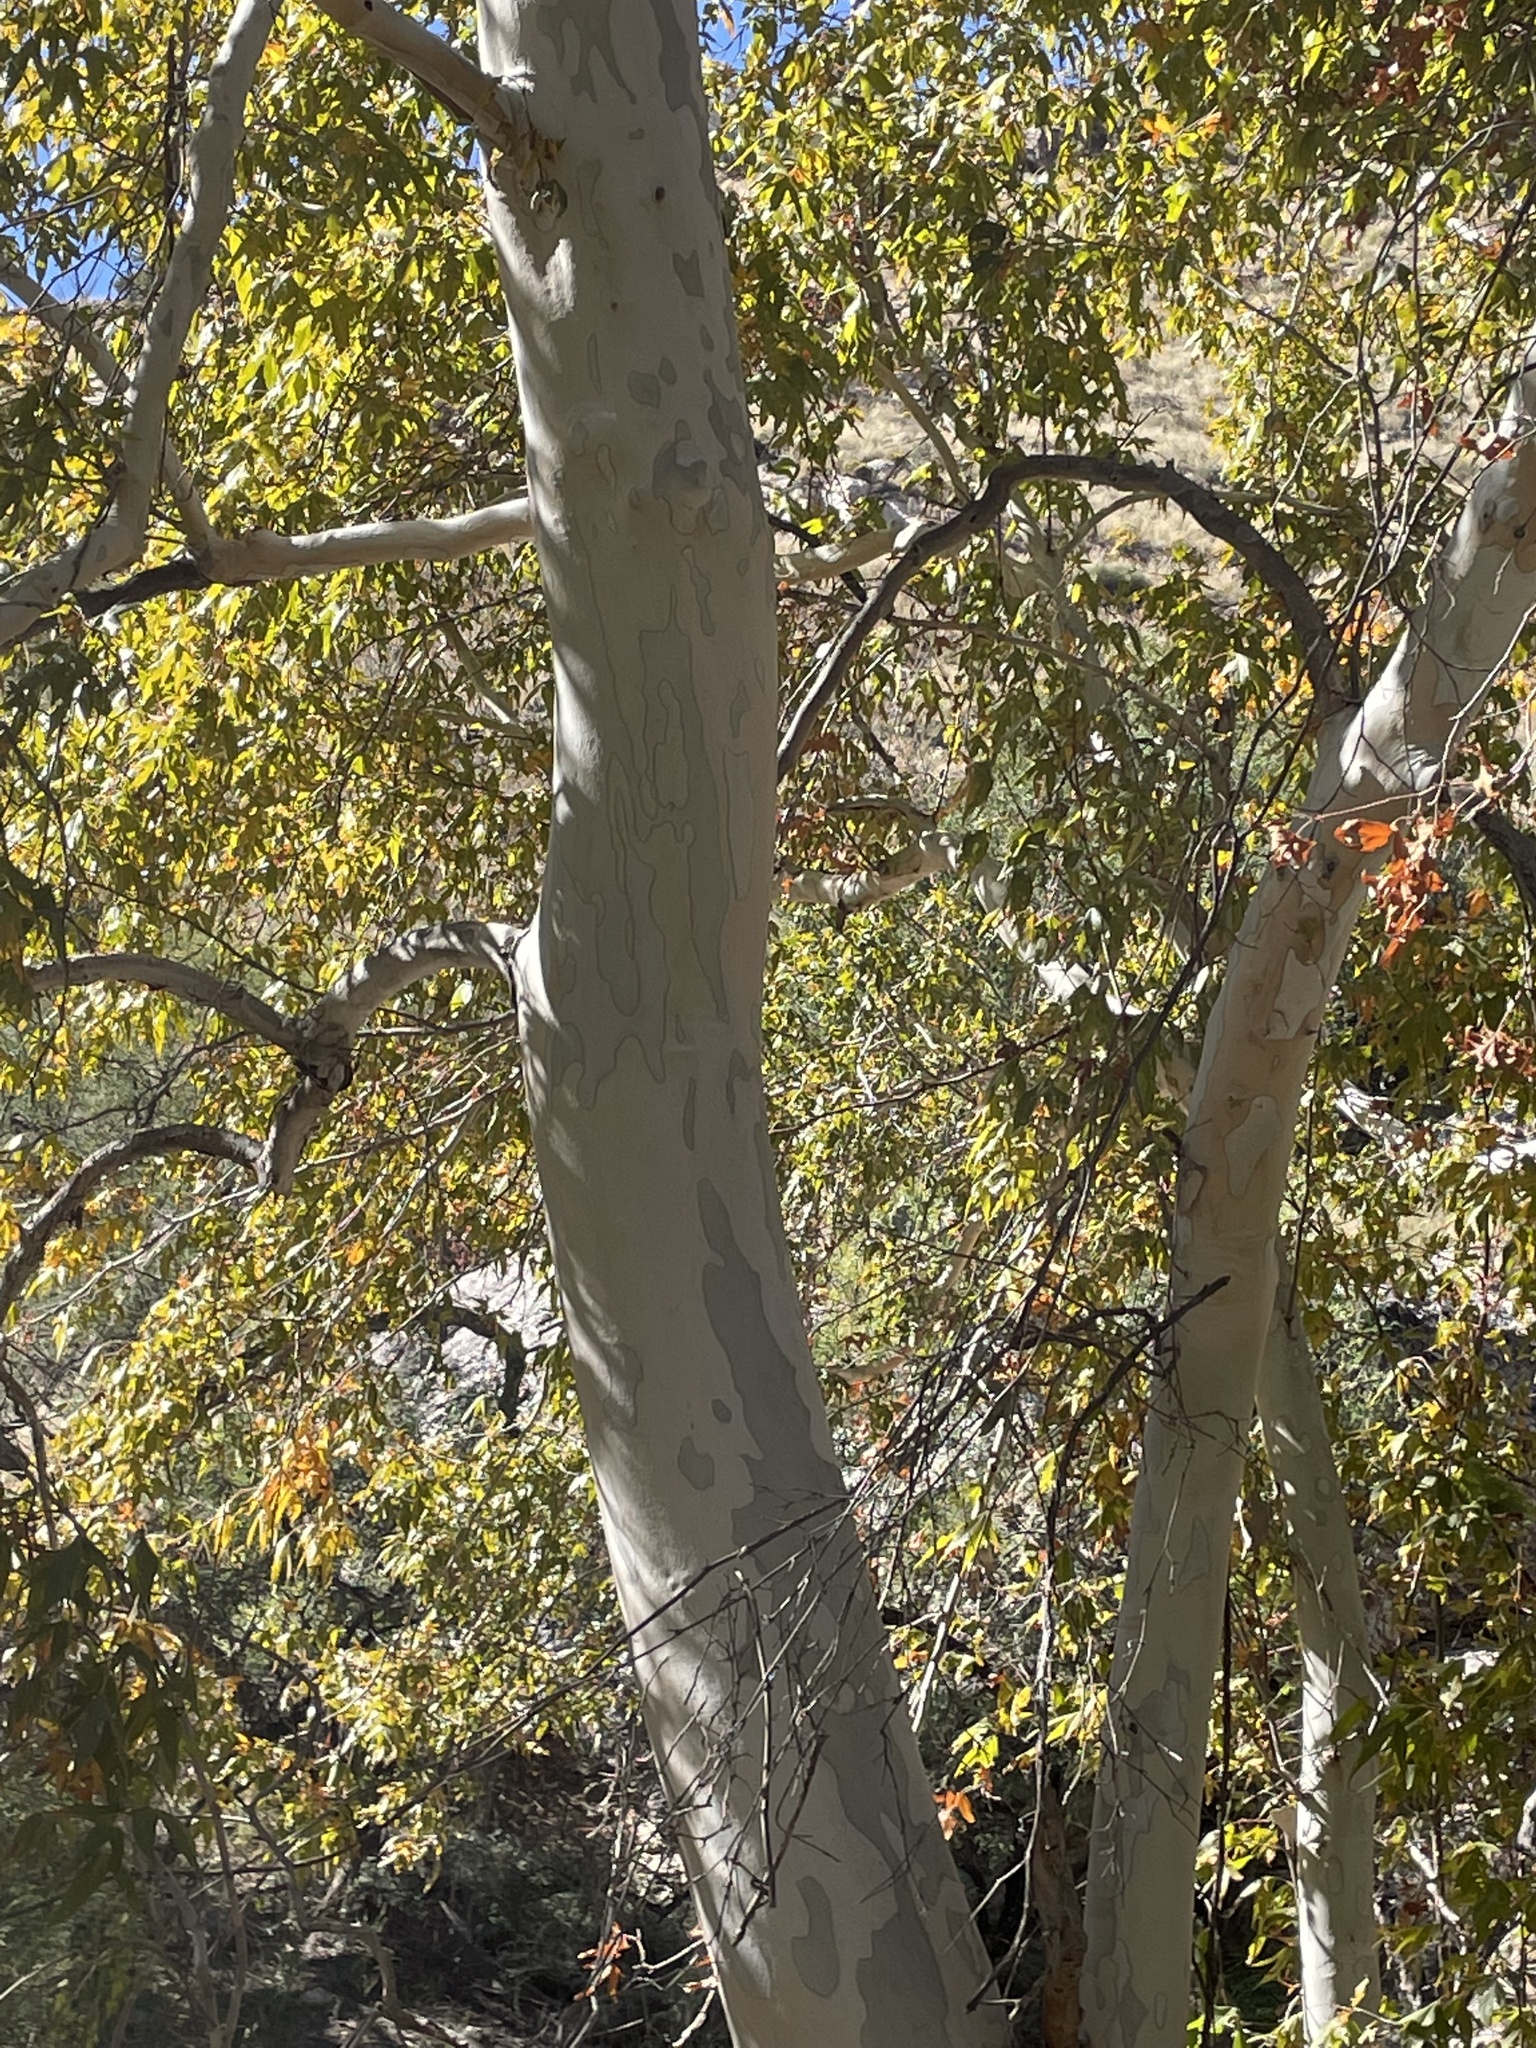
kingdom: Plantae
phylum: Tracheophyta
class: Magnoliopsida
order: Proteales
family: Platanaceae
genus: Platanus
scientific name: Platanus wrightii
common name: Arizona sycamore
